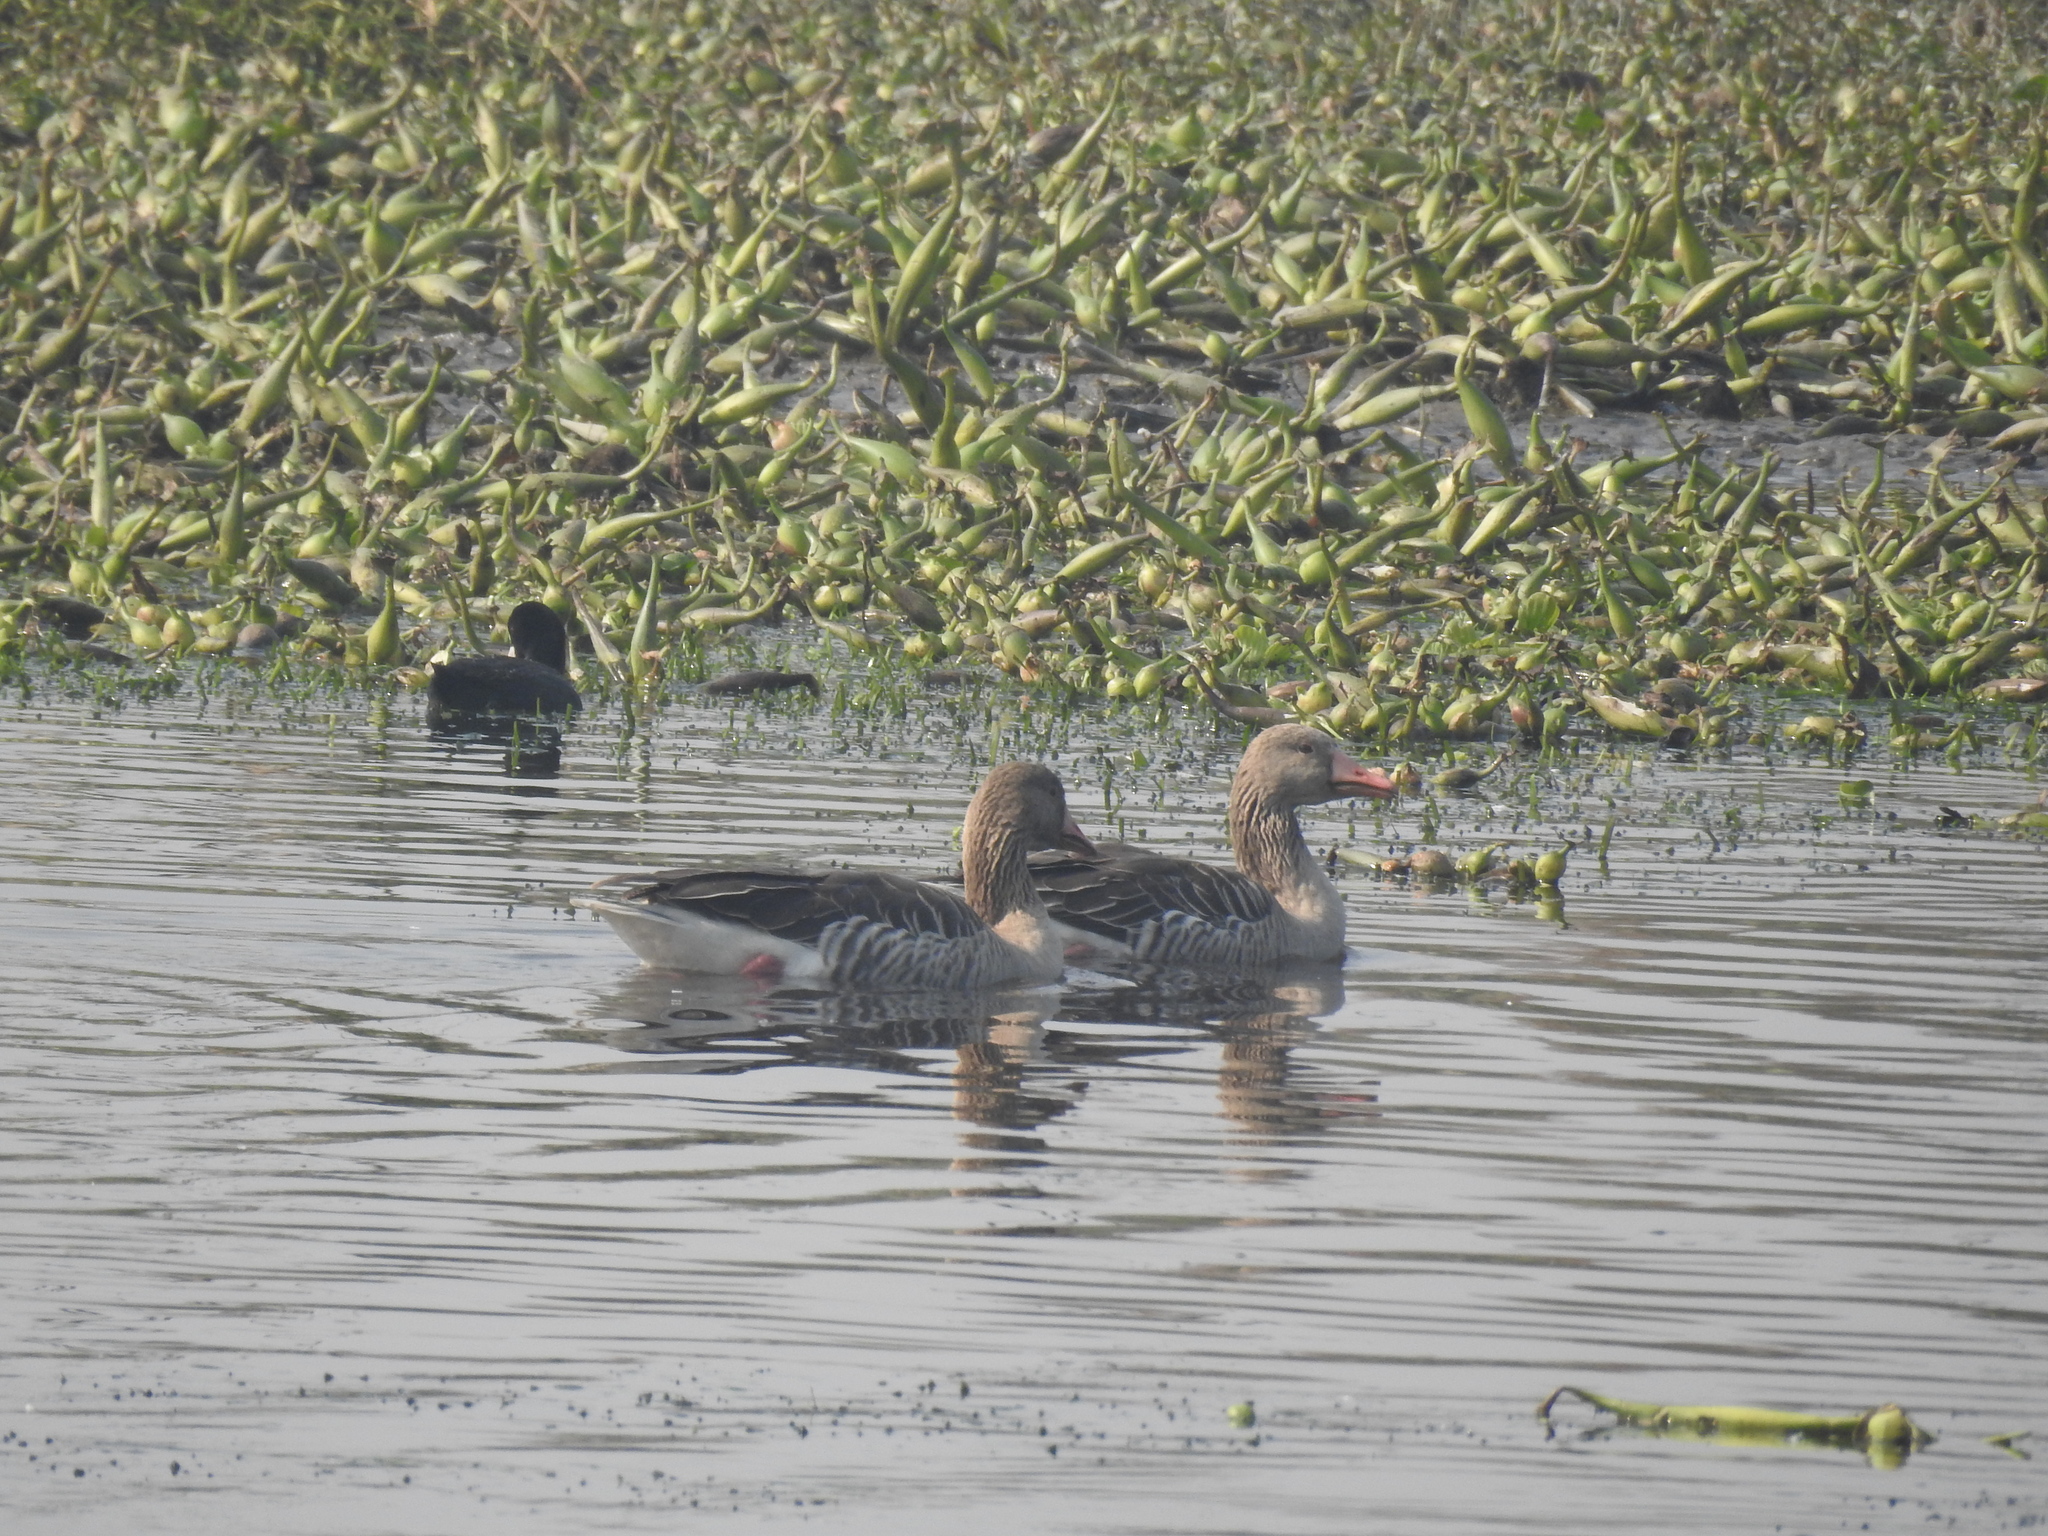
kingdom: Animalia
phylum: Chordata
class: Aves
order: Anseriformes
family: Anatidae
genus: Anser
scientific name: Anser anser
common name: Greylag goose
